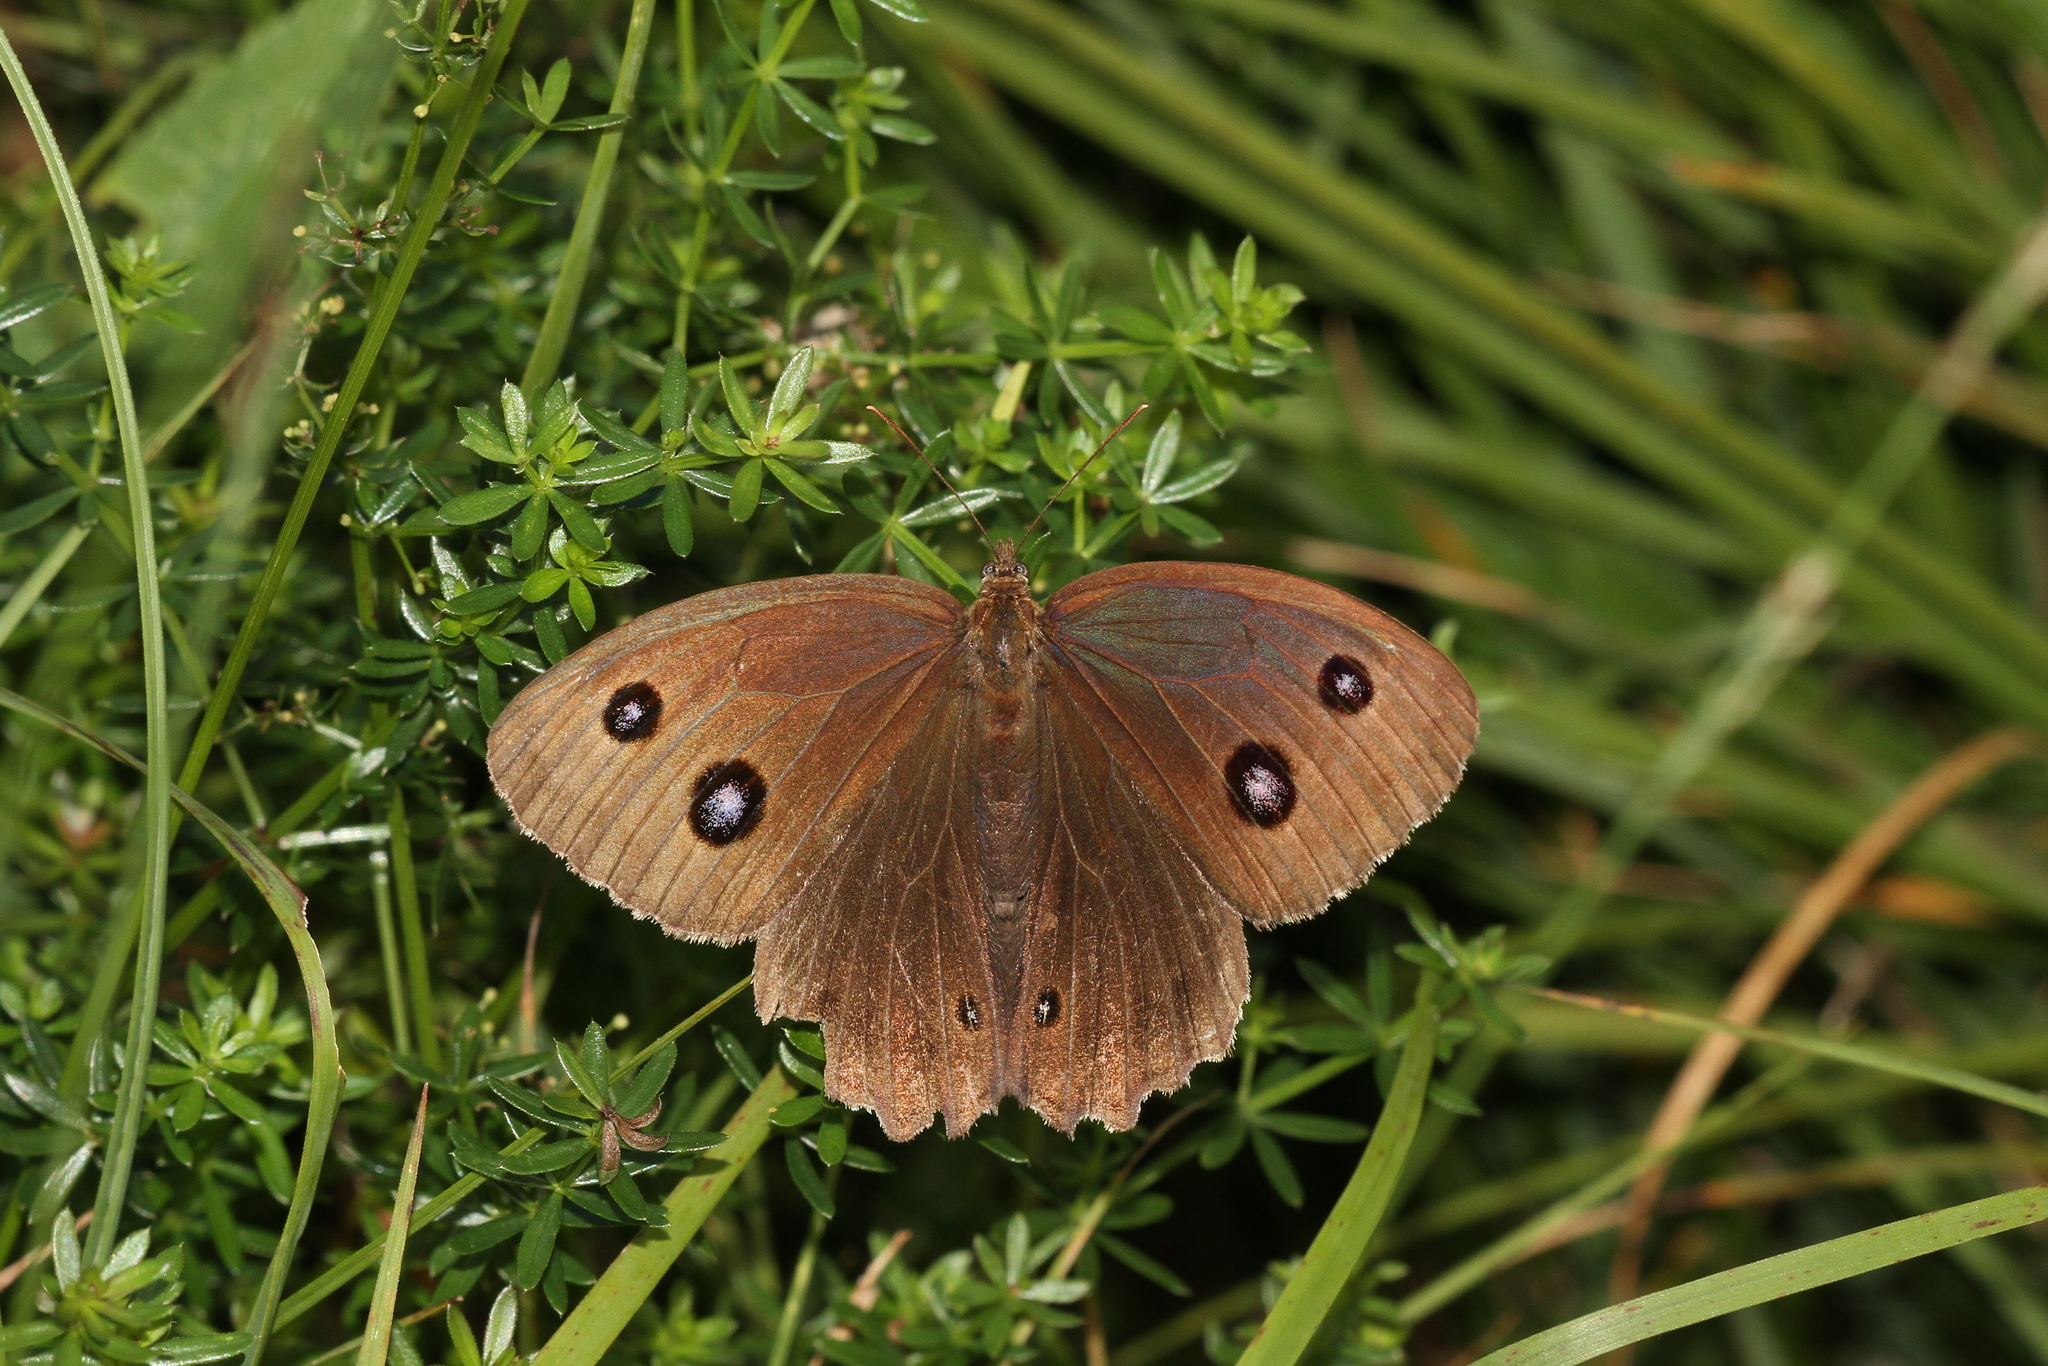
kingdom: Animalia
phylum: Arthropoda
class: Insecta
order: Lepidoptera
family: Nymphalidae
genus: Minois
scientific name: Minois dryas
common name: Dryad
